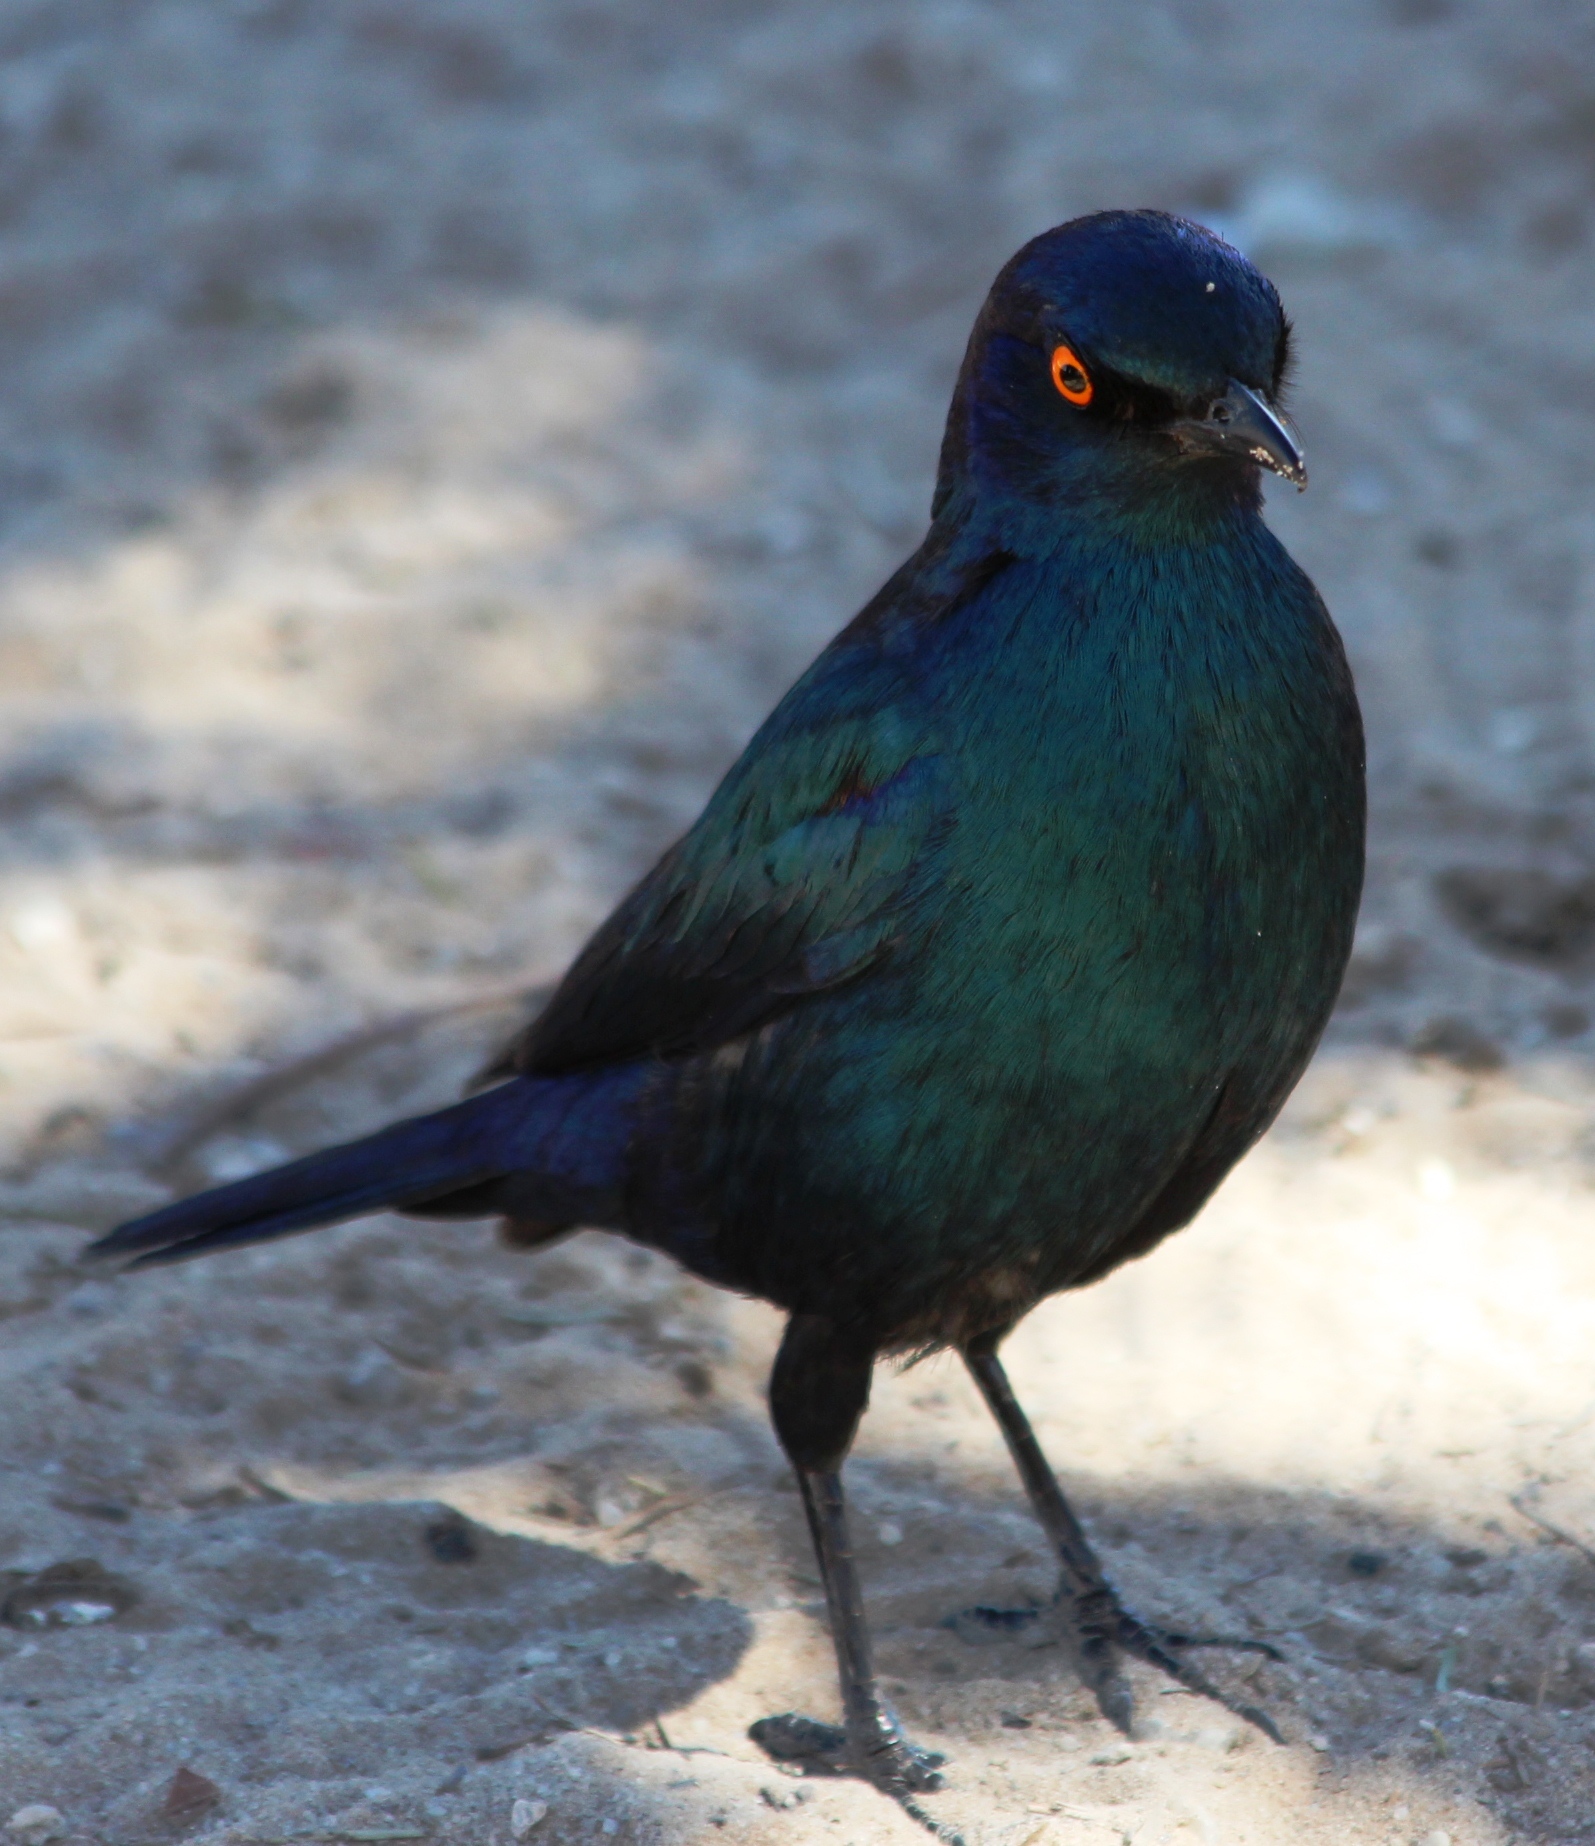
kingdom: Animalia
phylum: Chordata
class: Aves
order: Passeriformes
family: Sturnidae
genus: Lamprotornis
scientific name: Lamprotornis nitens
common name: Cape starling
